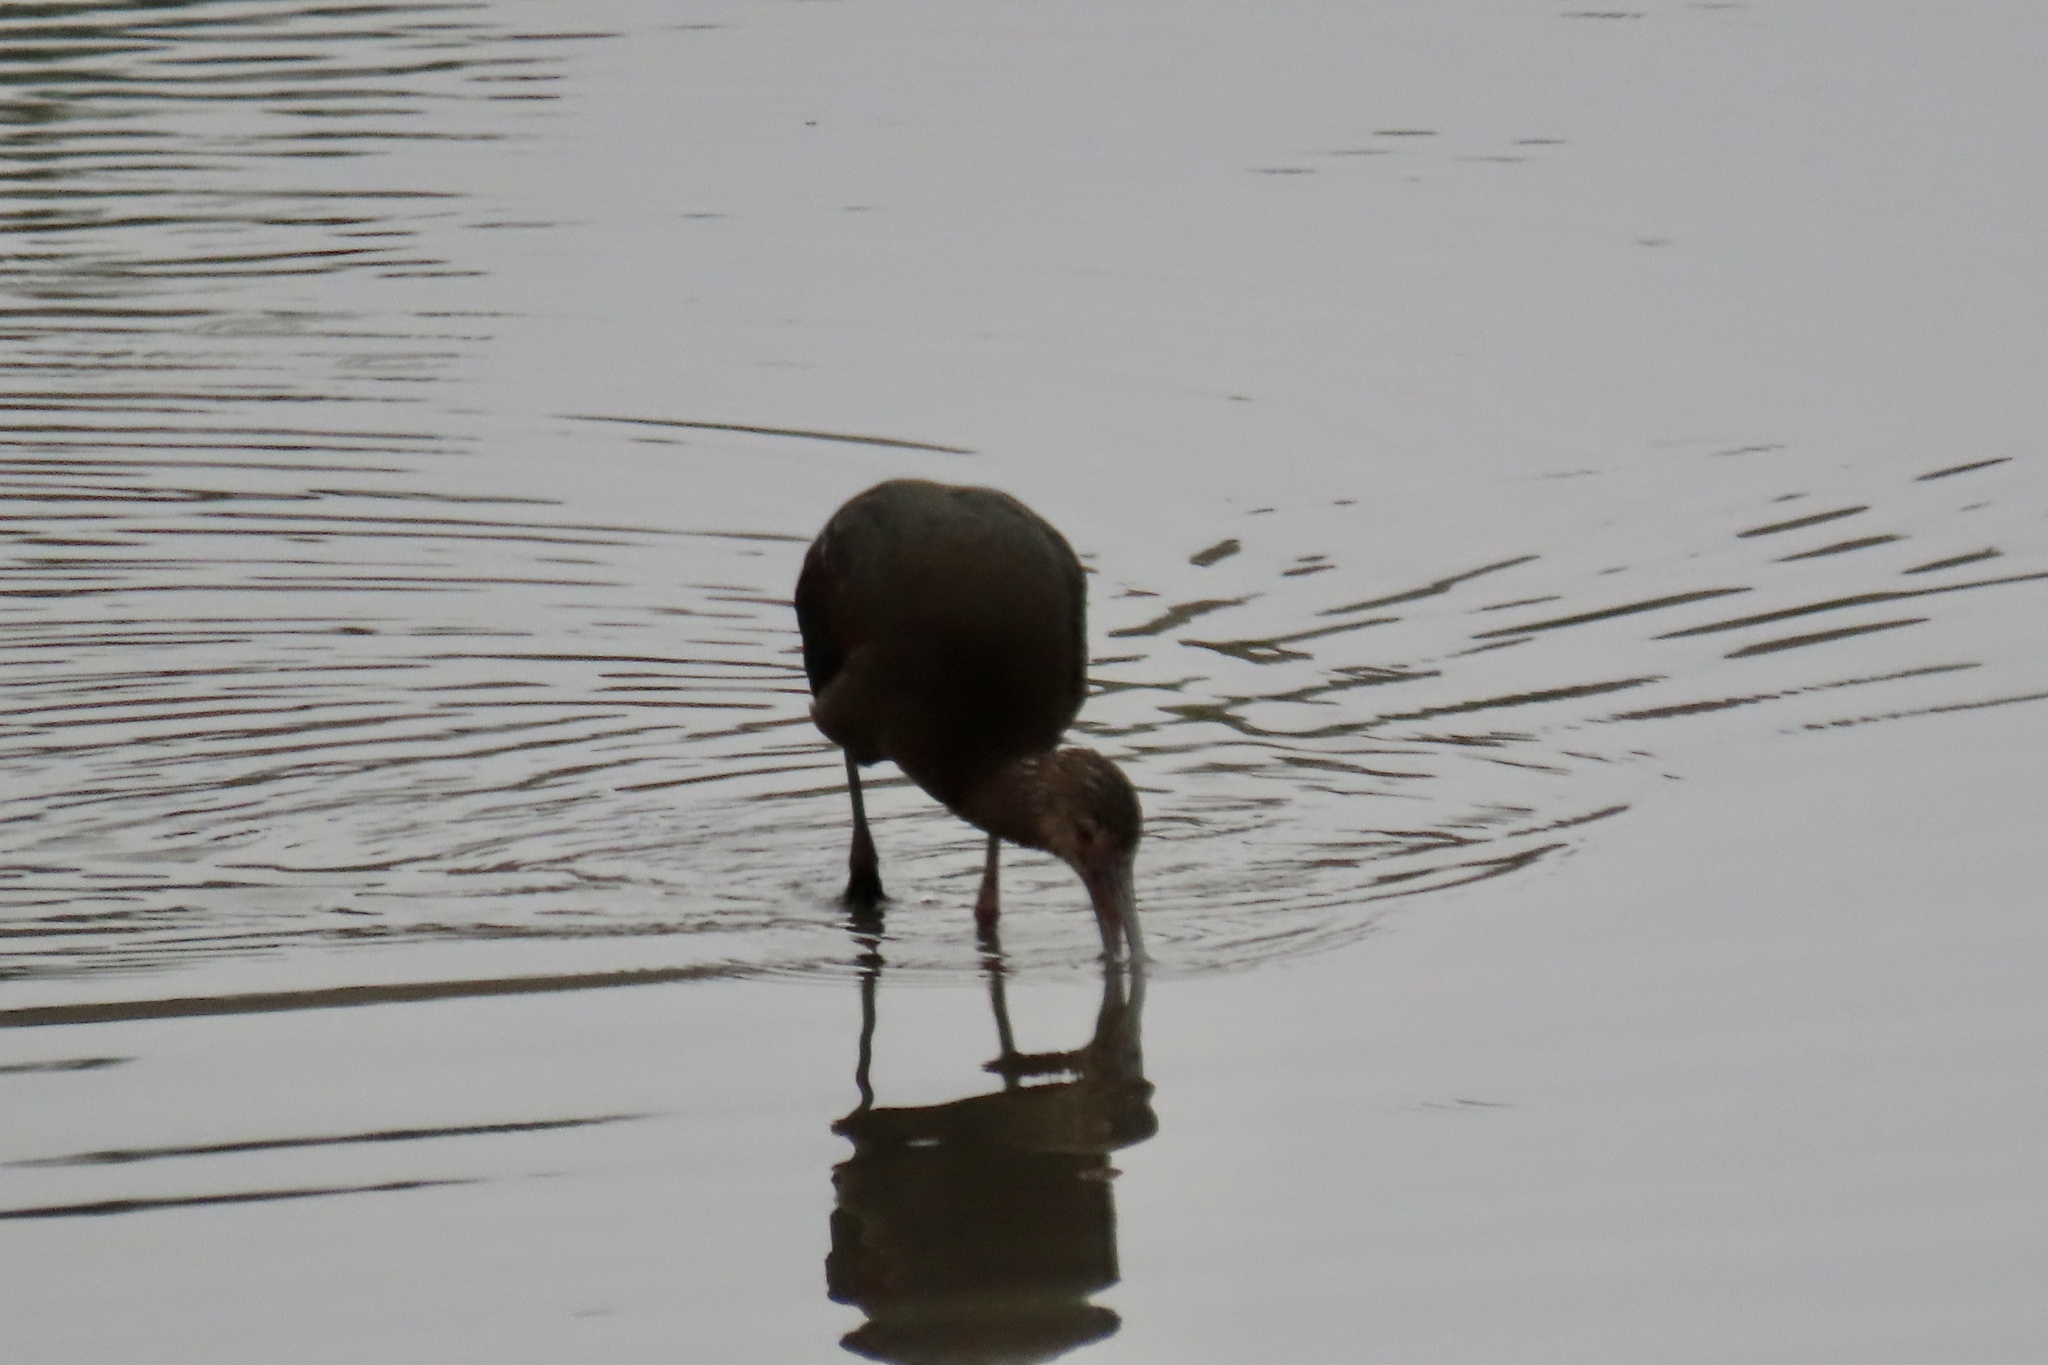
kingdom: Animalia
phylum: Chordata
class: Aves
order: Pelecaniformes
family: Threskiornithidae
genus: Plegadis
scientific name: Plegadis chihi
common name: White-faced ibis
